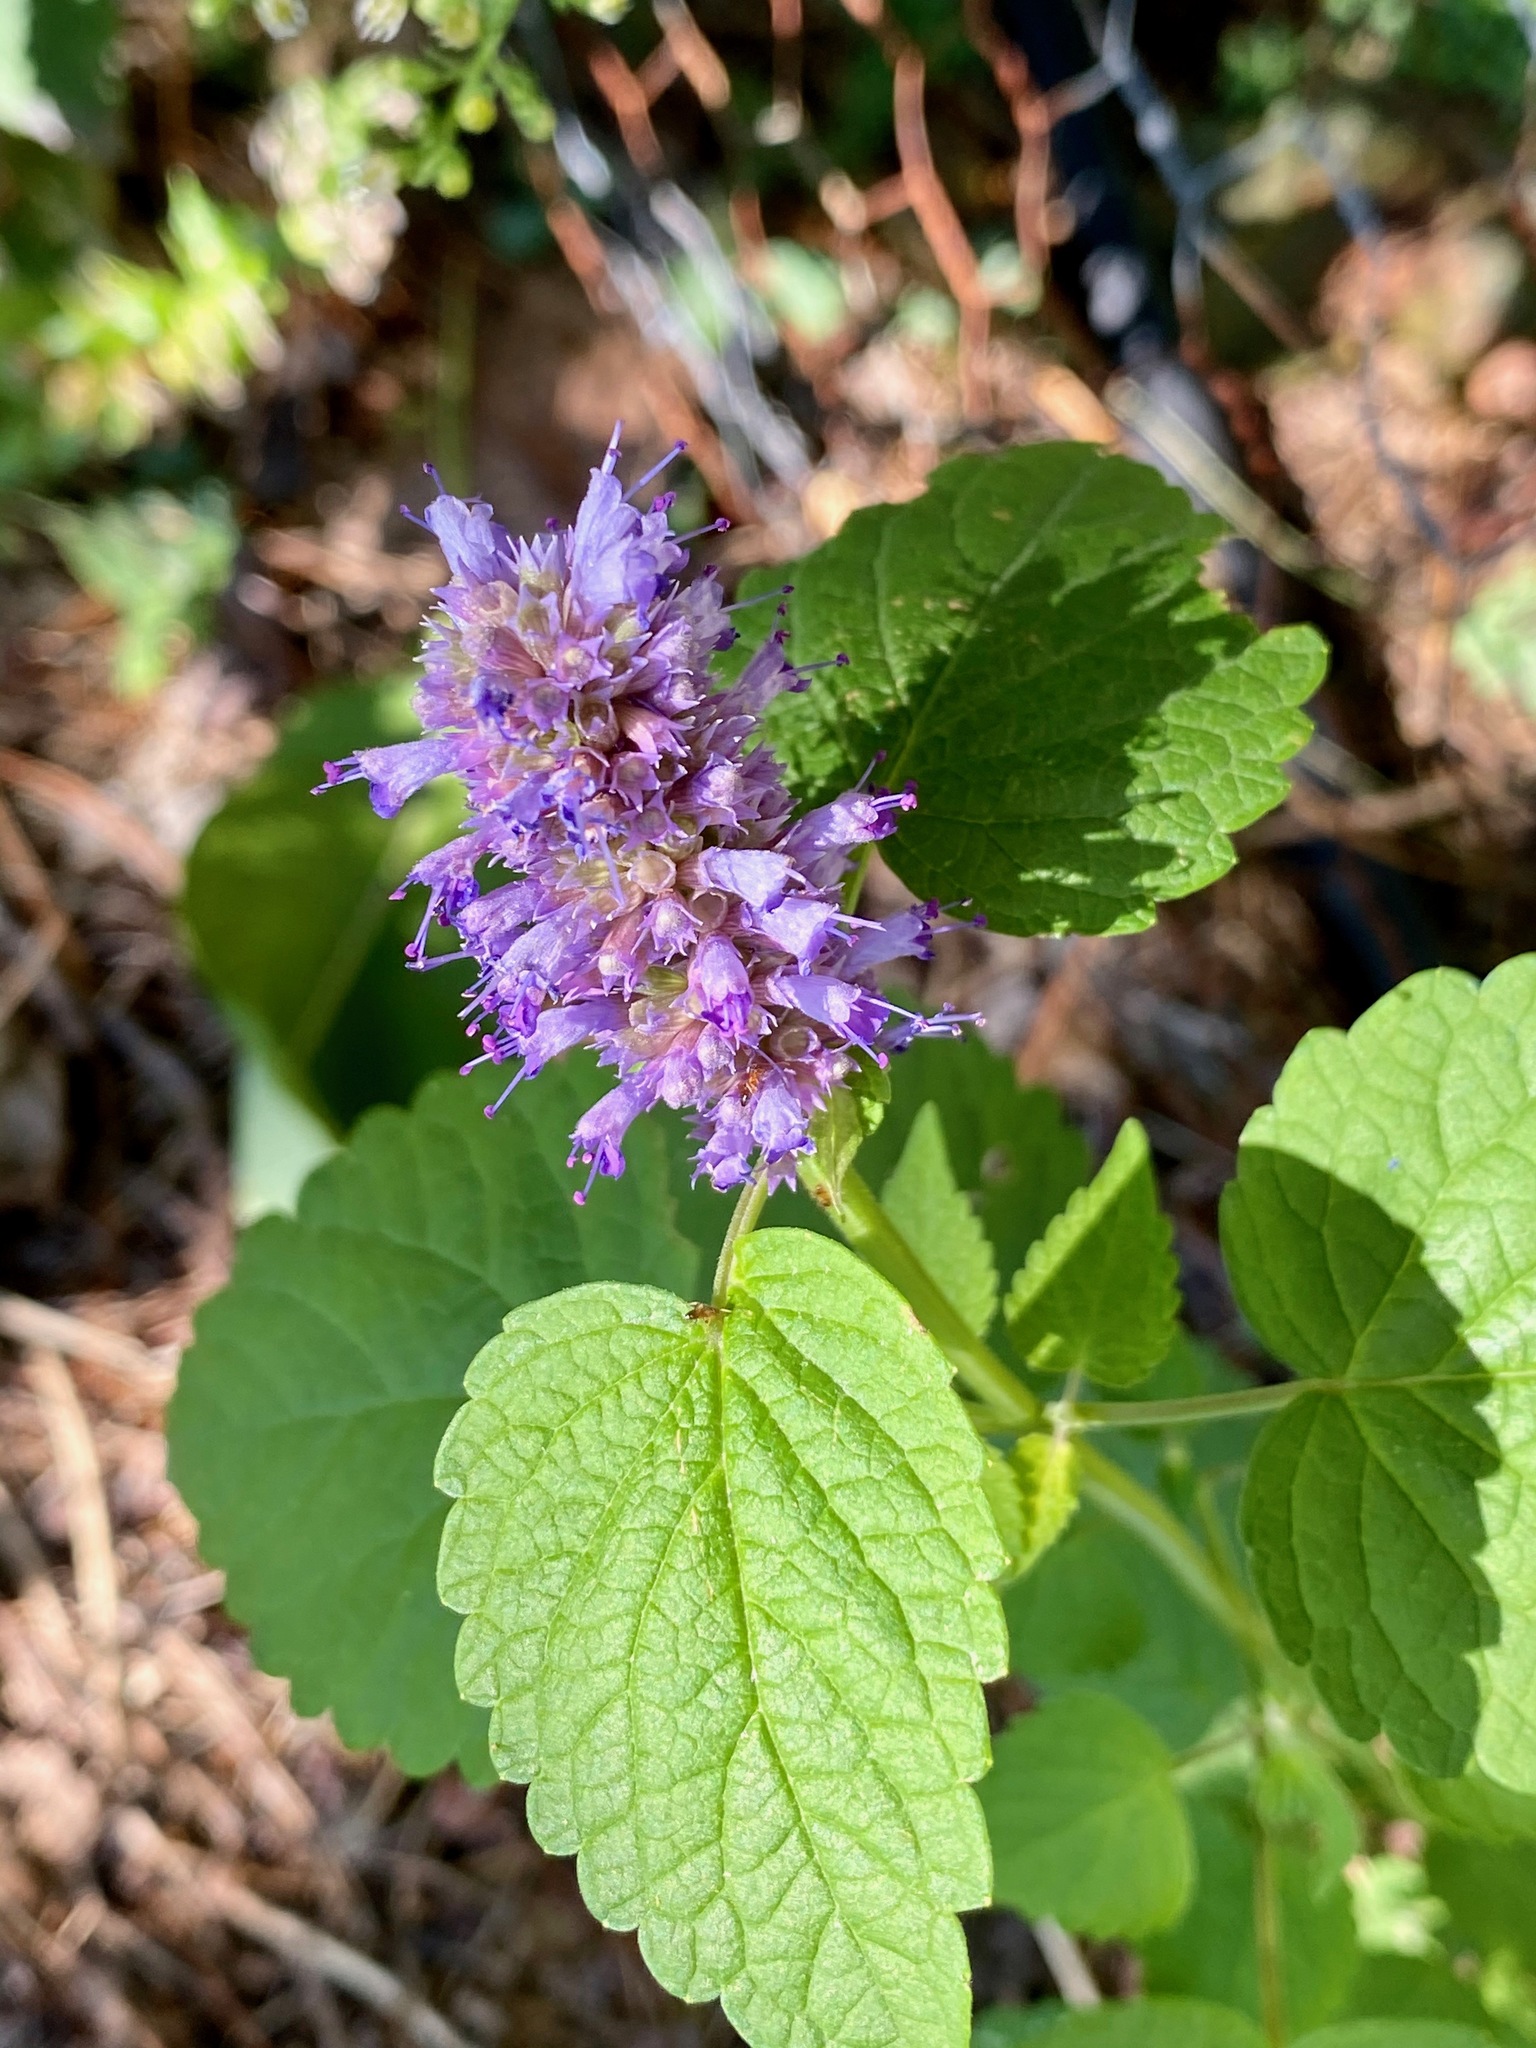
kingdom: Plantae
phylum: Tracheophyta
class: Magnoliopsida
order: Lamiales
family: Lamiaceae
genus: Agastache
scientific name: Agastache foeniculum
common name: Anise hyssop
